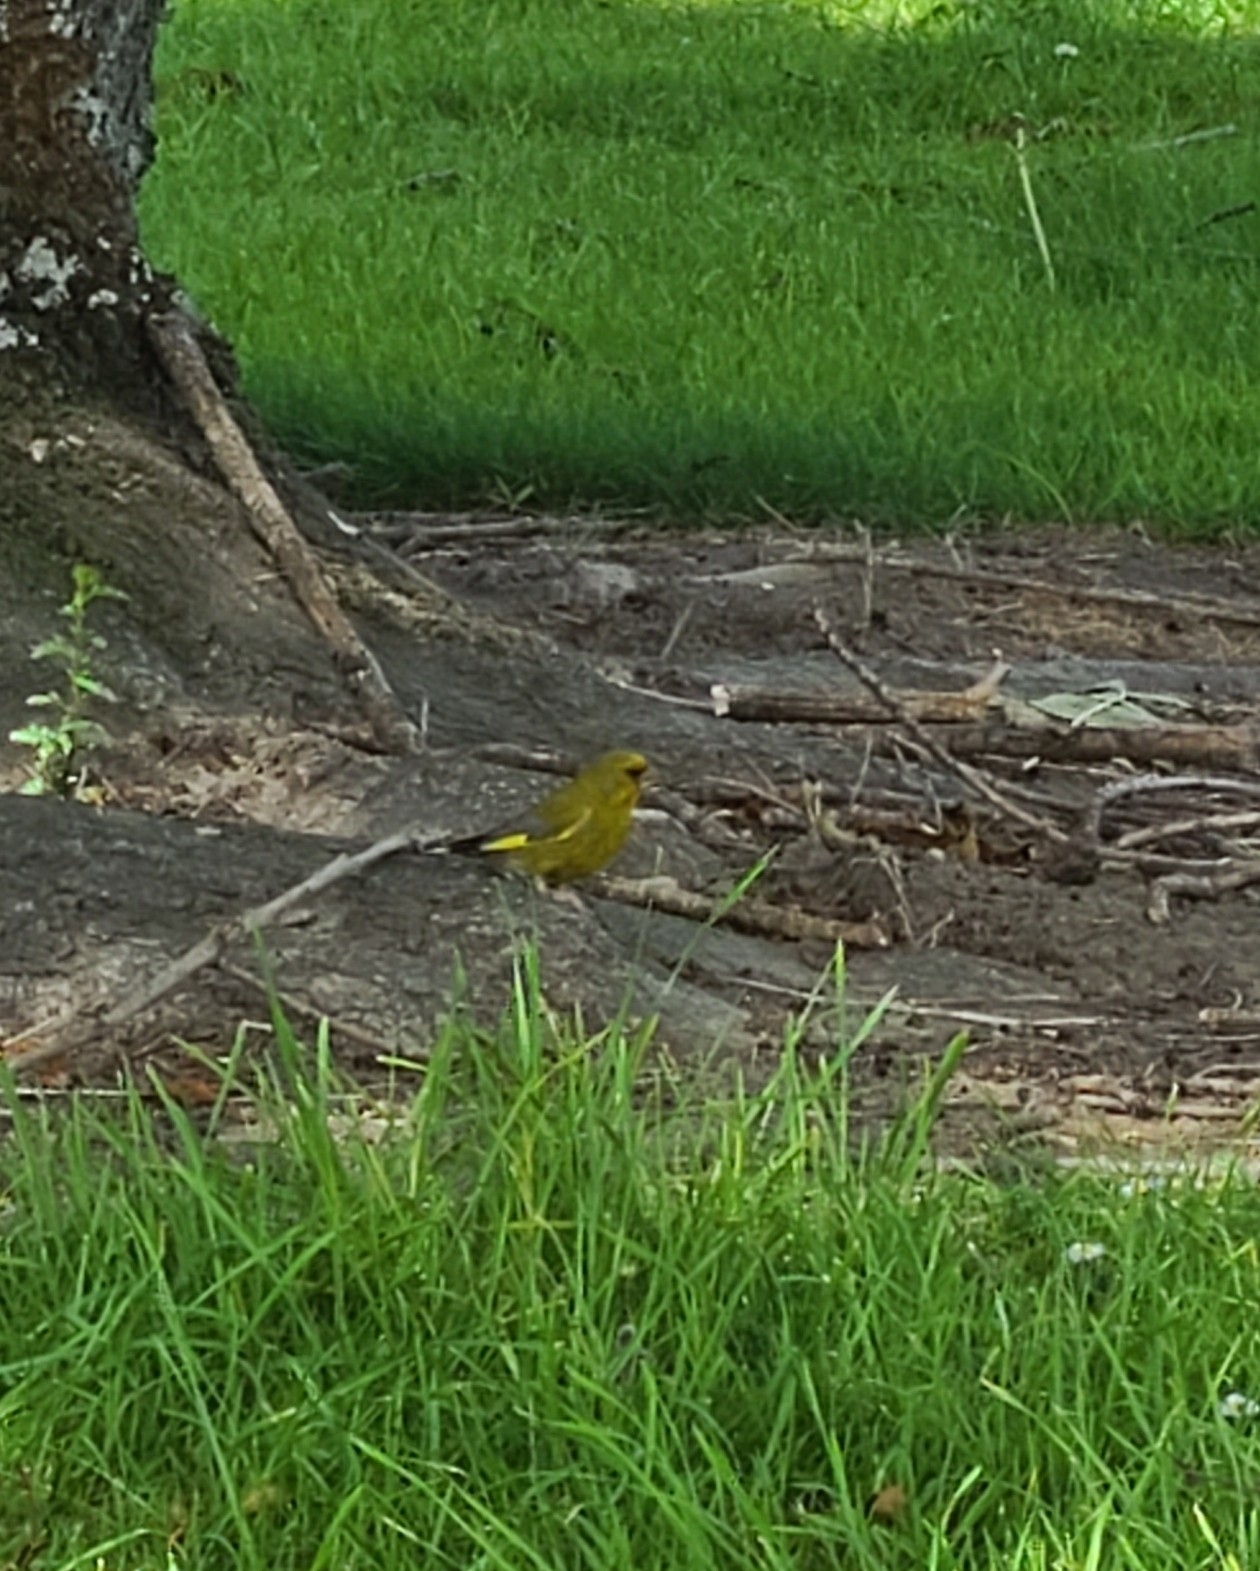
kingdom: Plantae
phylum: Tracheophyta
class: Liliopsida
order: Poales
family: Poaceae
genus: Chloris
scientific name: Chloris chloris
